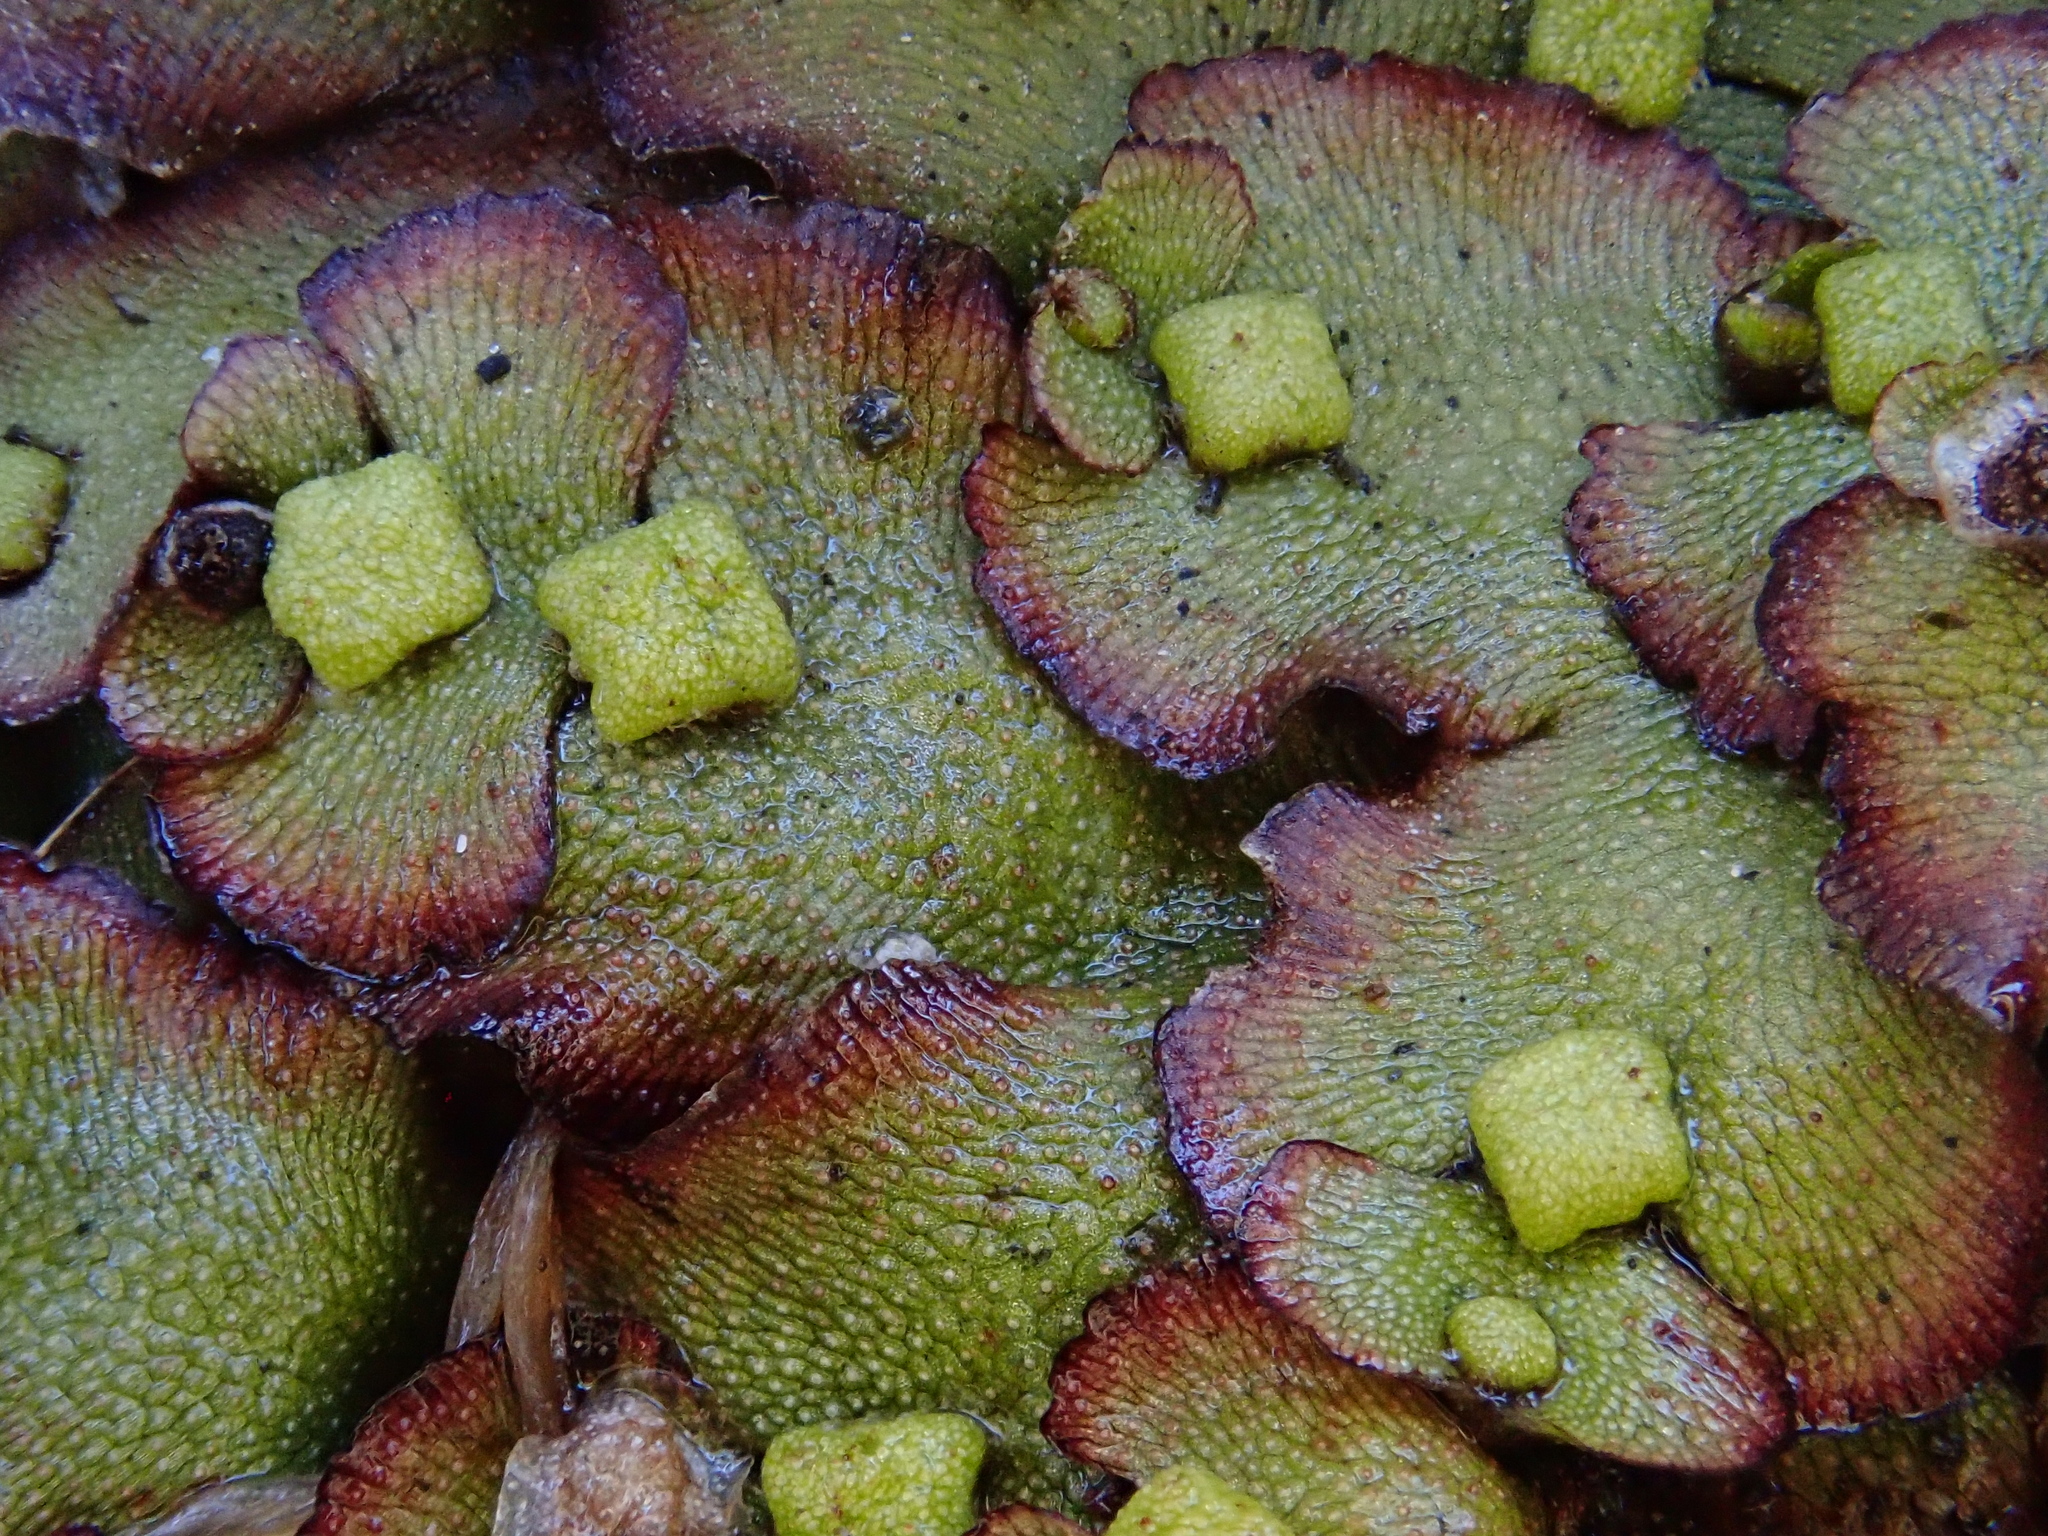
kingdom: Plantae
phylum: Marchantiophyta
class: Marchantiopsida
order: Marchantiales
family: Marchantiaceae
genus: Marchantia
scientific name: Marchantia quadrata
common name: Narrow mushroom-headed liverwort
